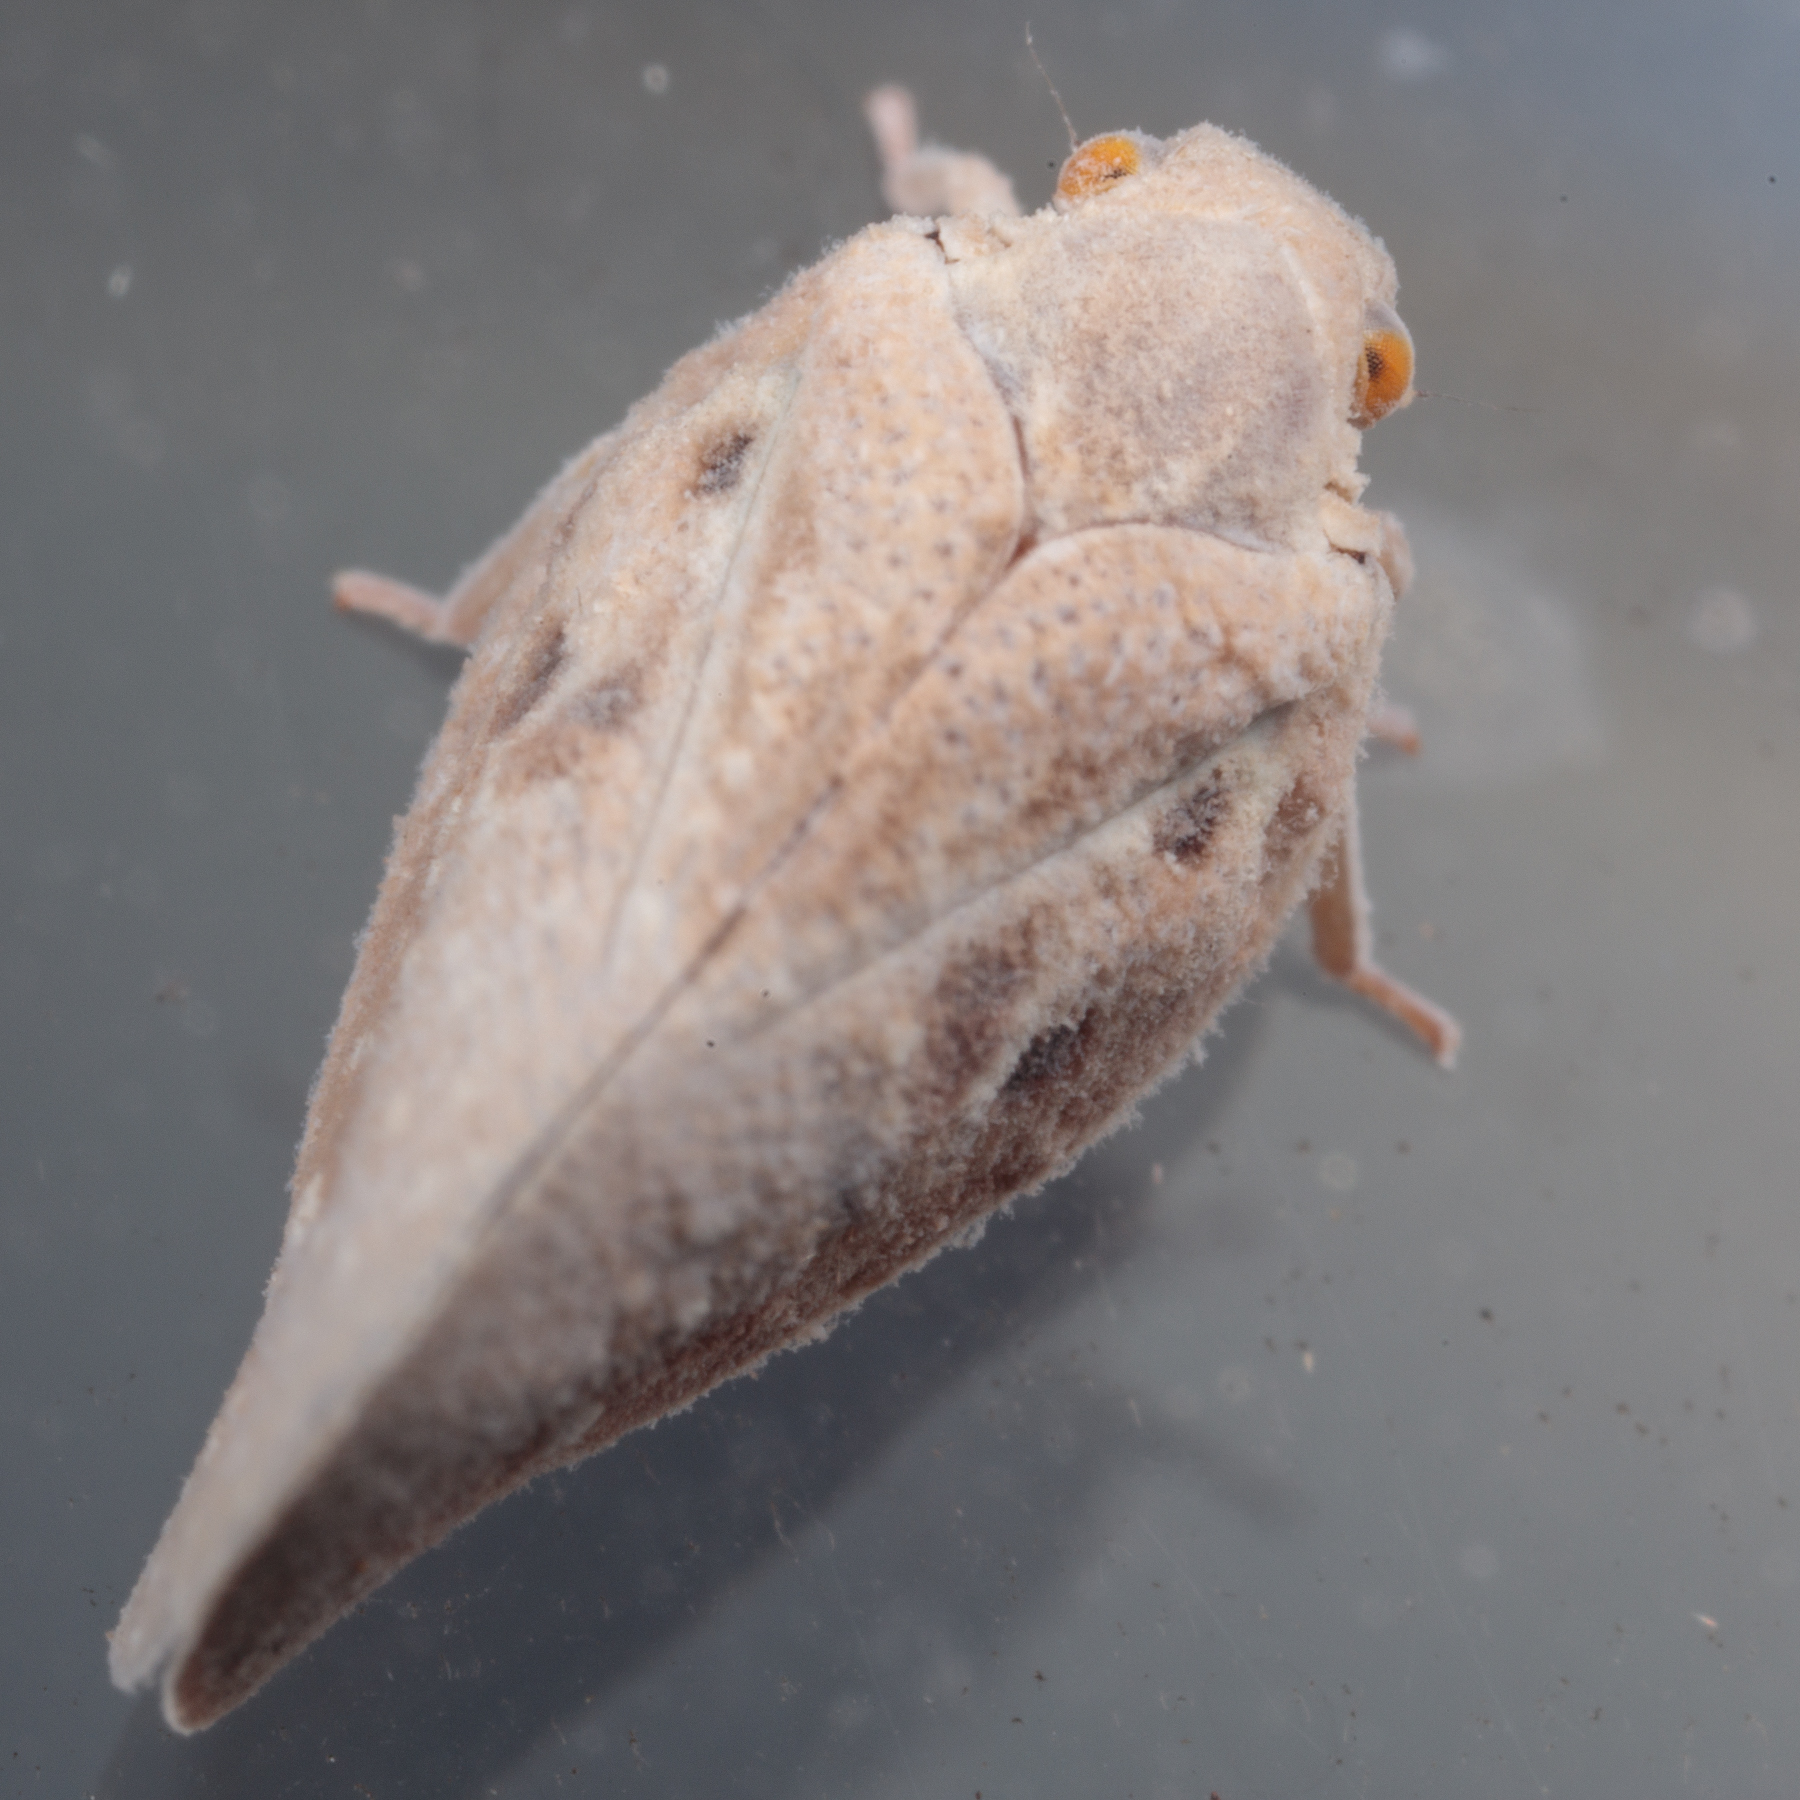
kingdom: Animalia
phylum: Arthropoda
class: Insecta
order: Hemiptera
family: Flatidae
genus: Metcalfa
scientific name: Metcalfa pruinosa
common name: Citrus flatid planthopper
